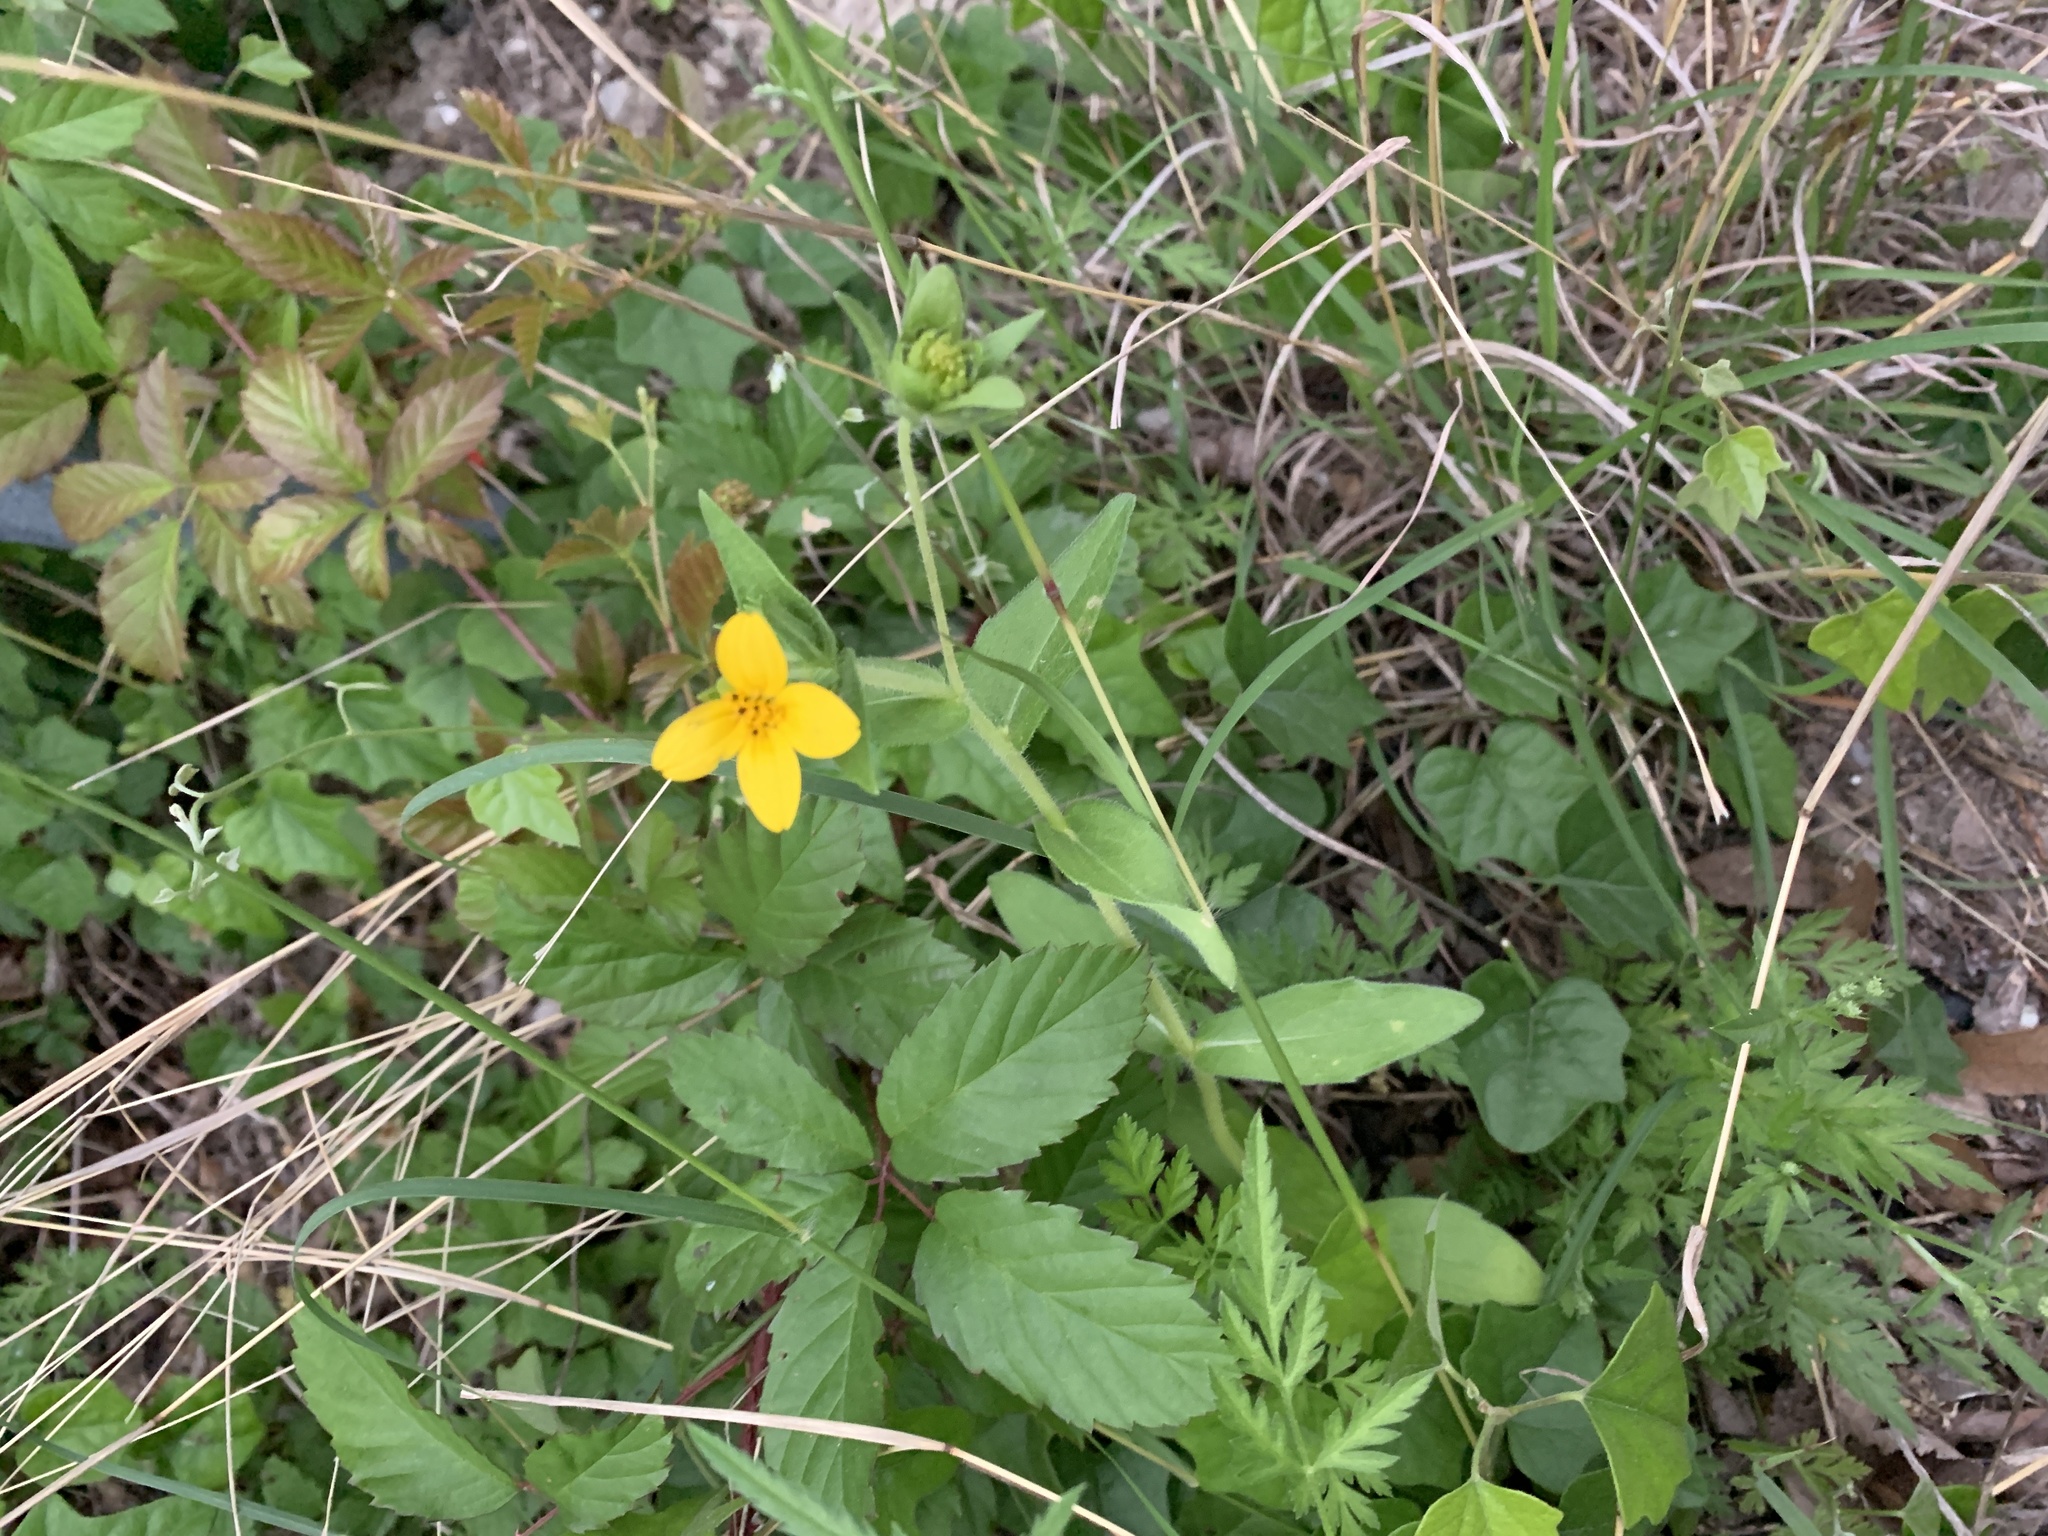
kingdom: Plantae
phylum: Tracheophyta
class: Magnoliopsida
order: Asterales
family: Asteraceae
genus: Lindheimera
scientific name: Lindheimera texana
